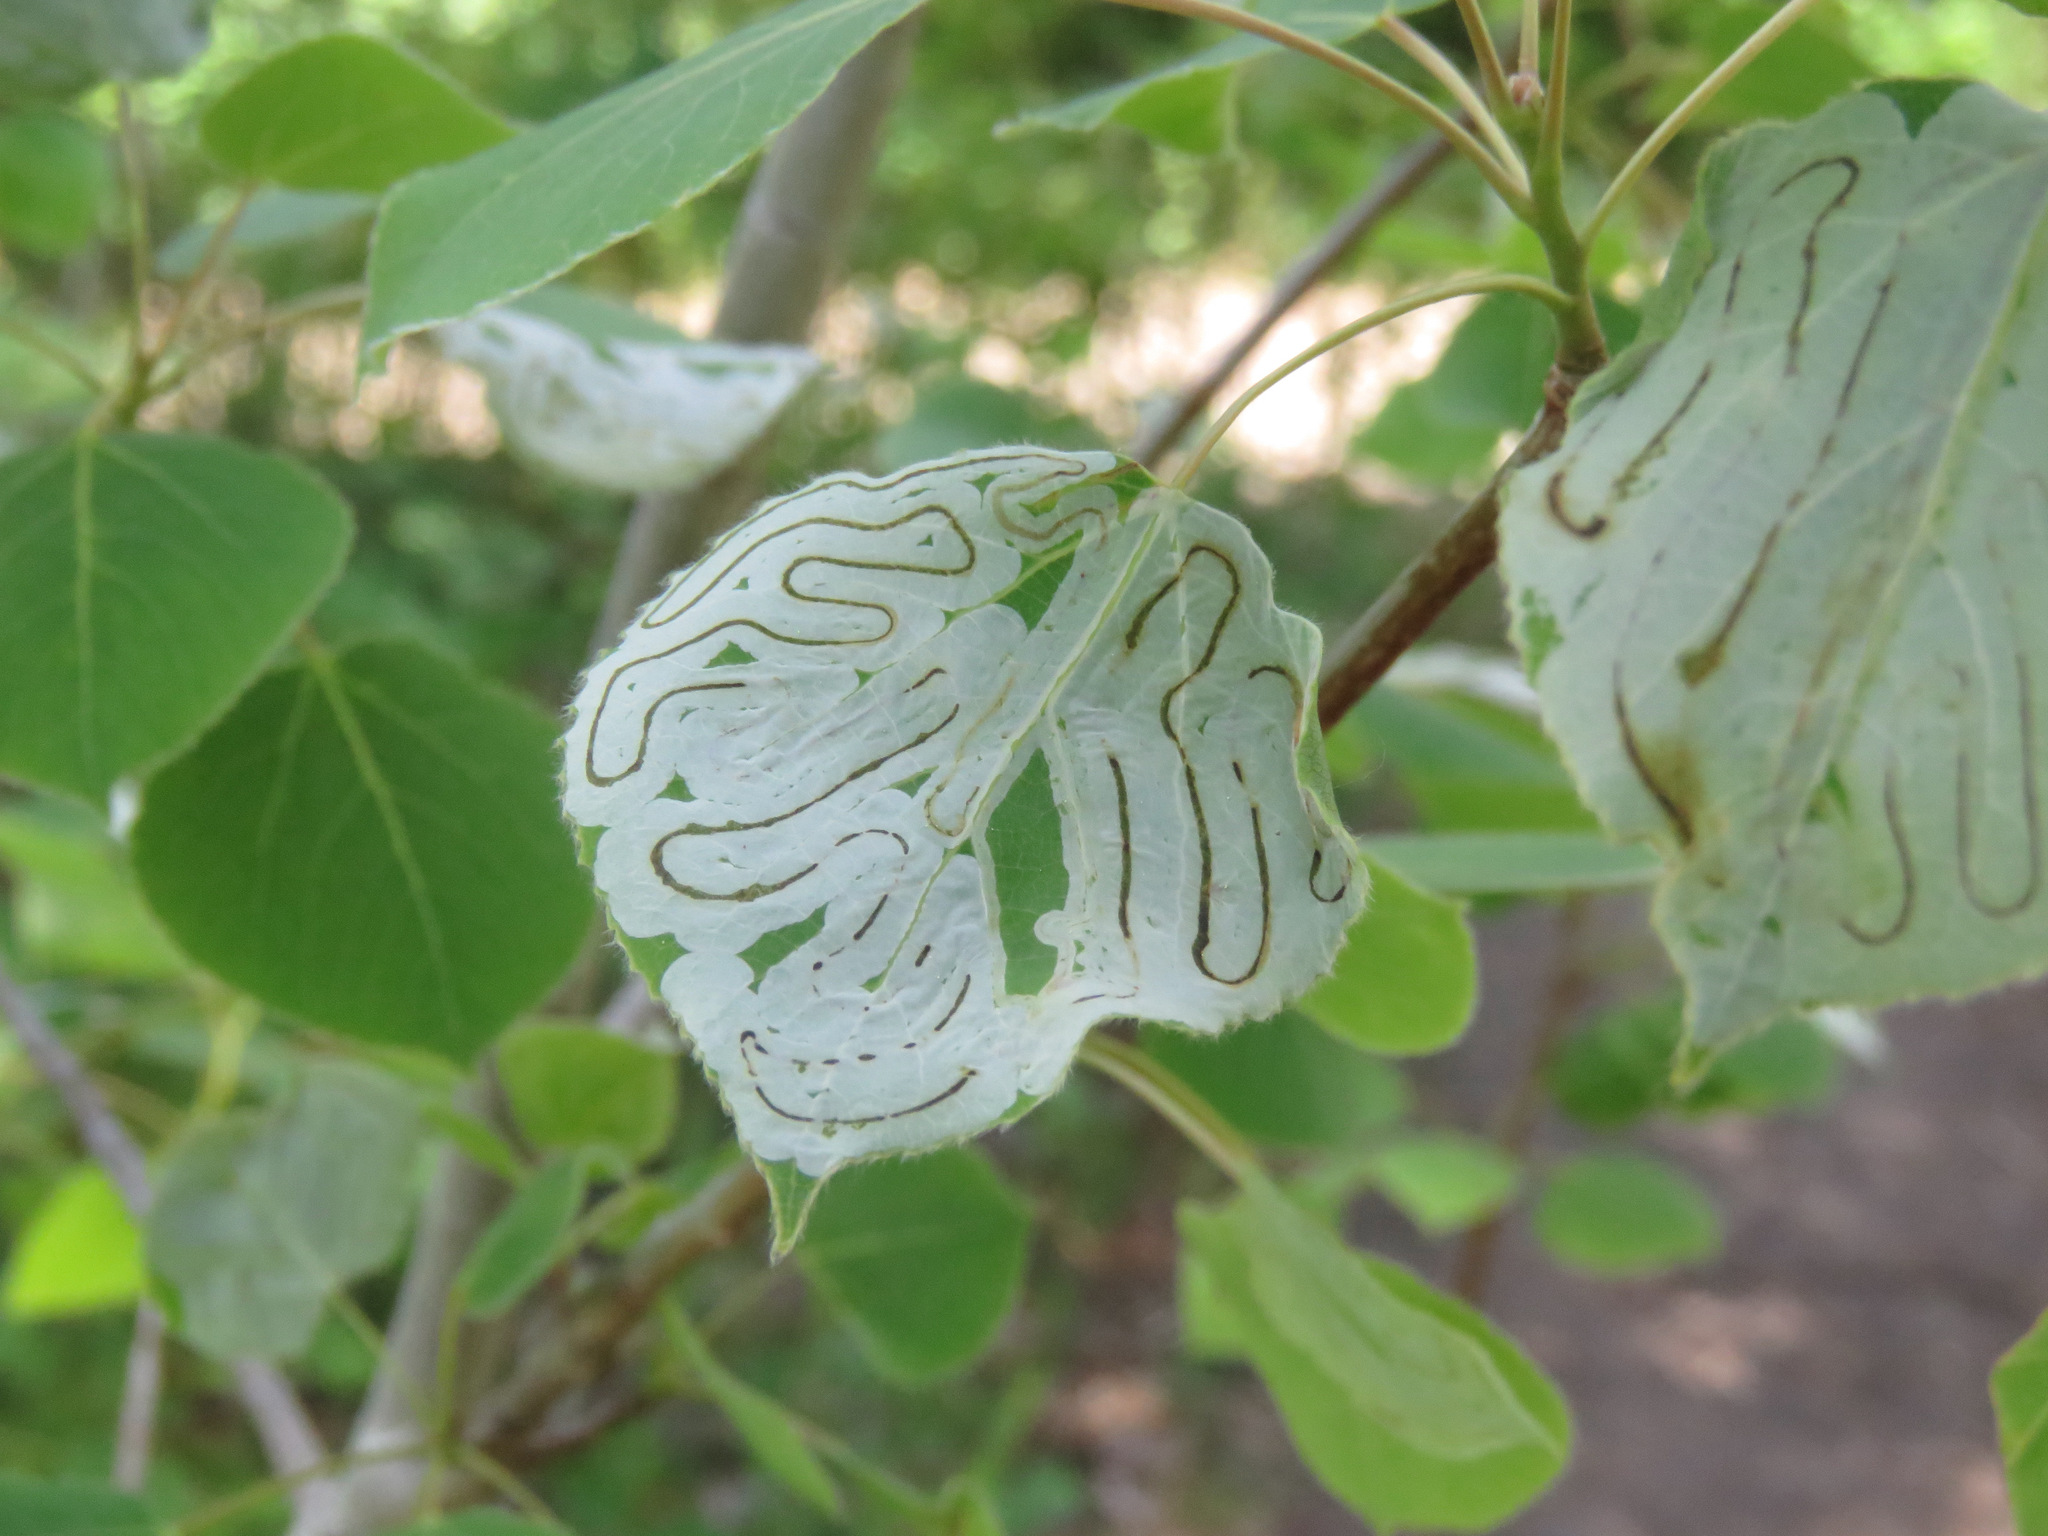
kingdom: Animalia
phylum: Arthropoda
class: Insecta
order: Lepidoptera
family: Gracillariidae
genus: Phyllocnistis
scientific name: Phyllocnistis populiella
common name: Aspen serpentine leafminer moth
